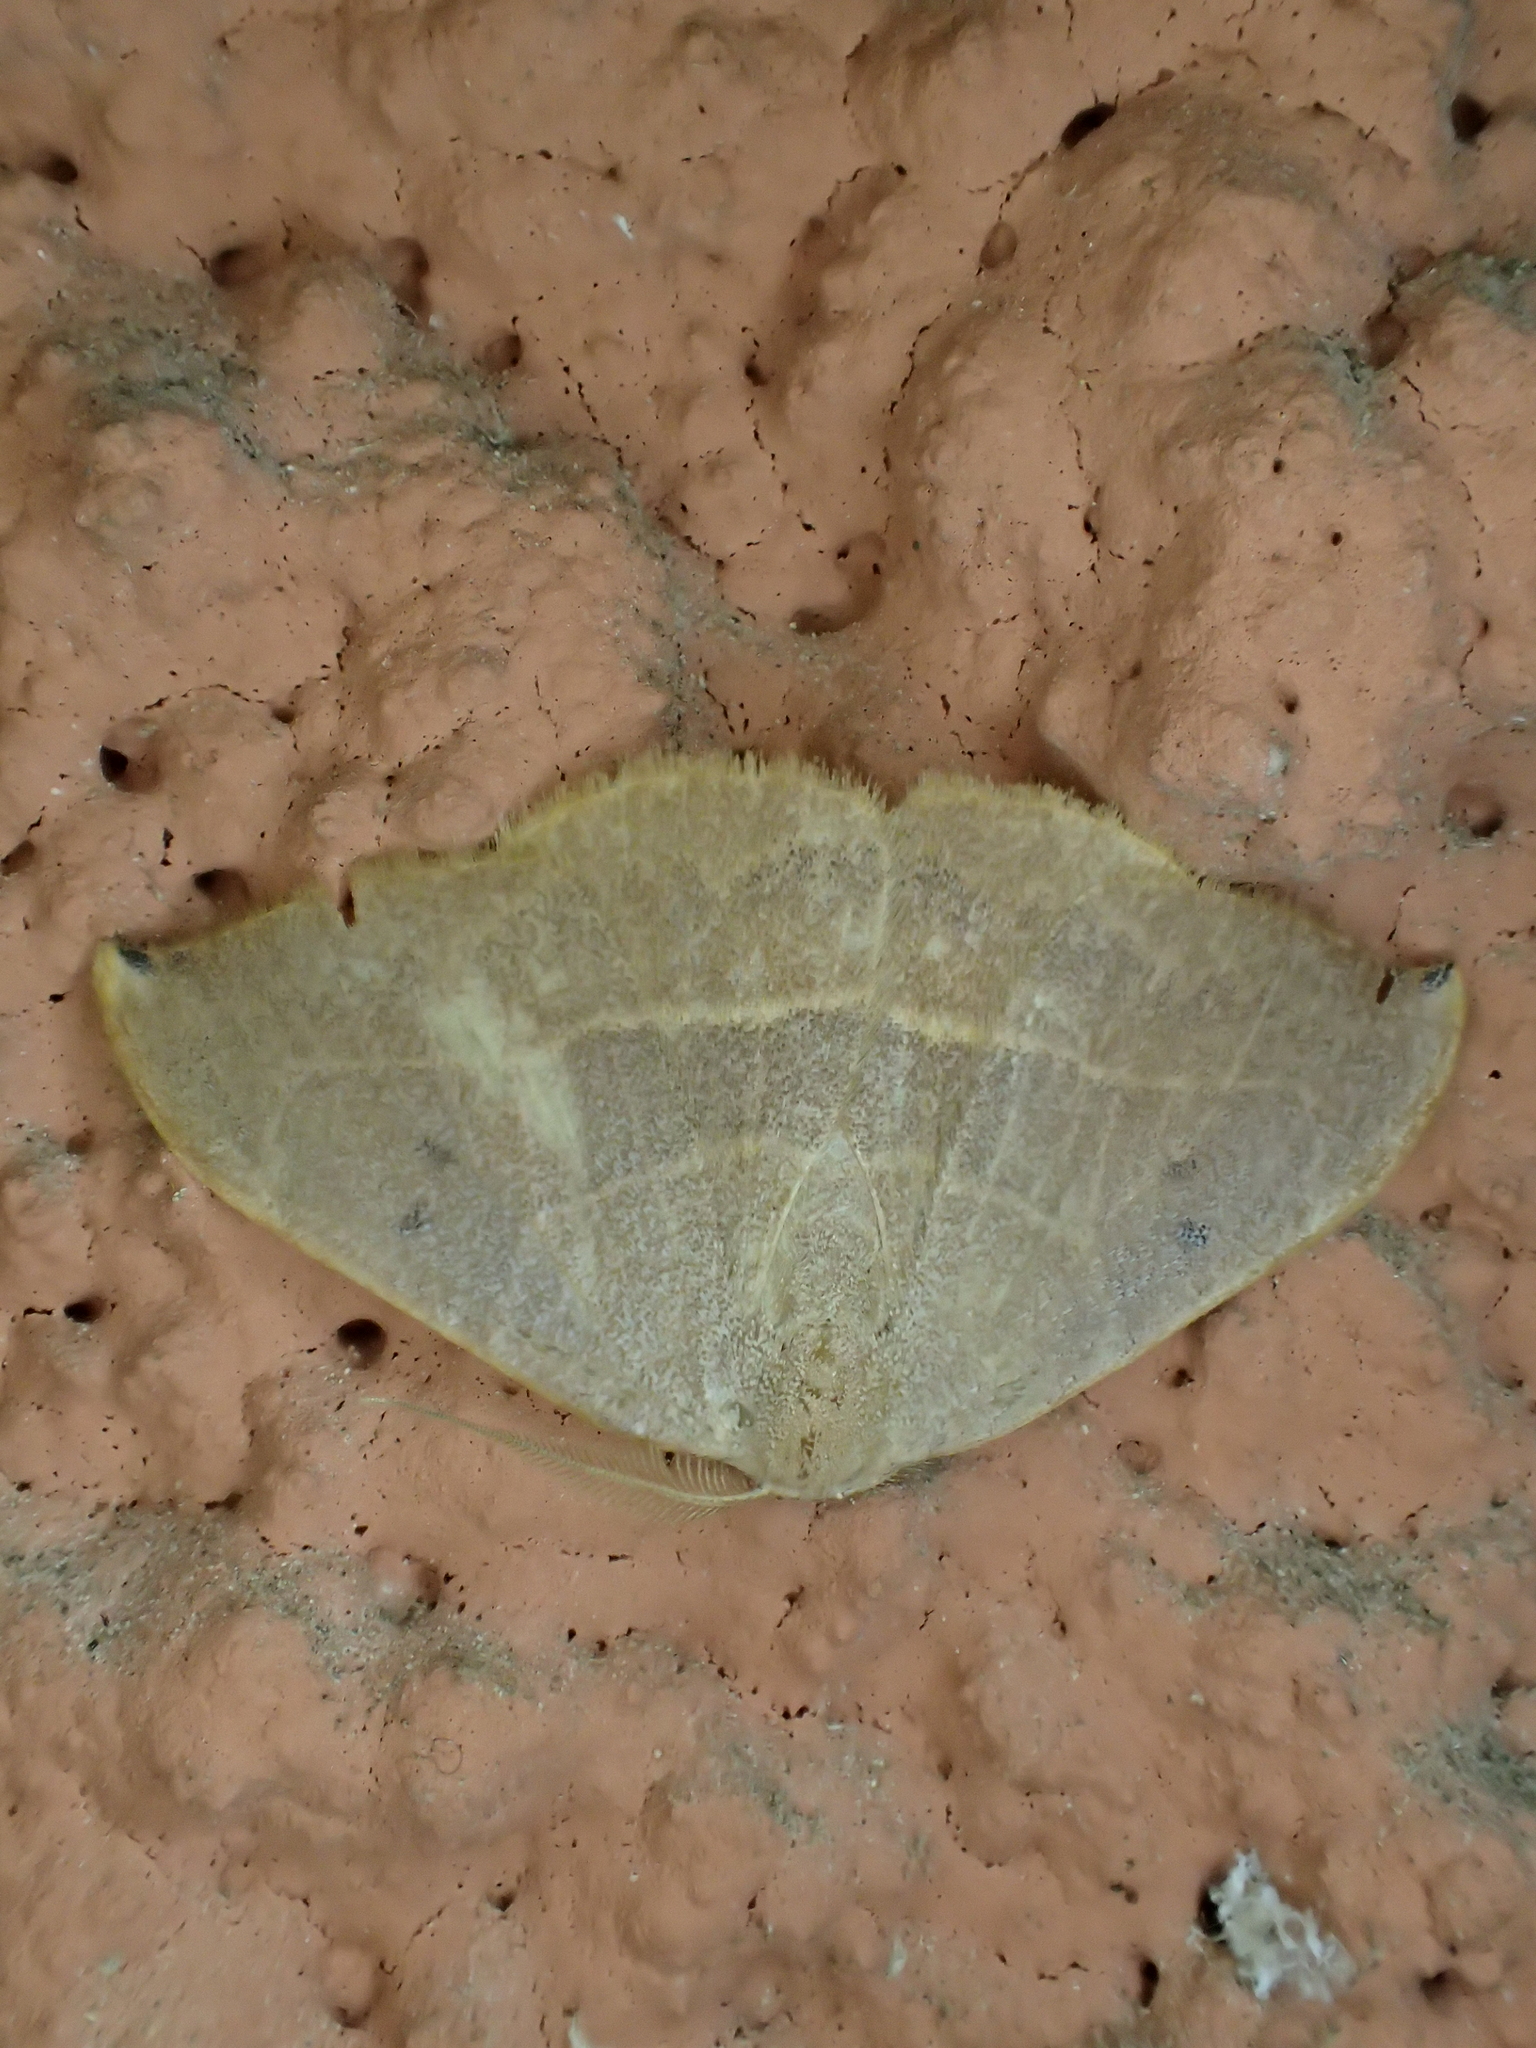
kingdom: Animalia
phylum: Arthropoda
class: Insecta
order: Lepidoptera
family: Drepanidae
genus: Watsonalla
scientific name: Watsonalla uncinula
